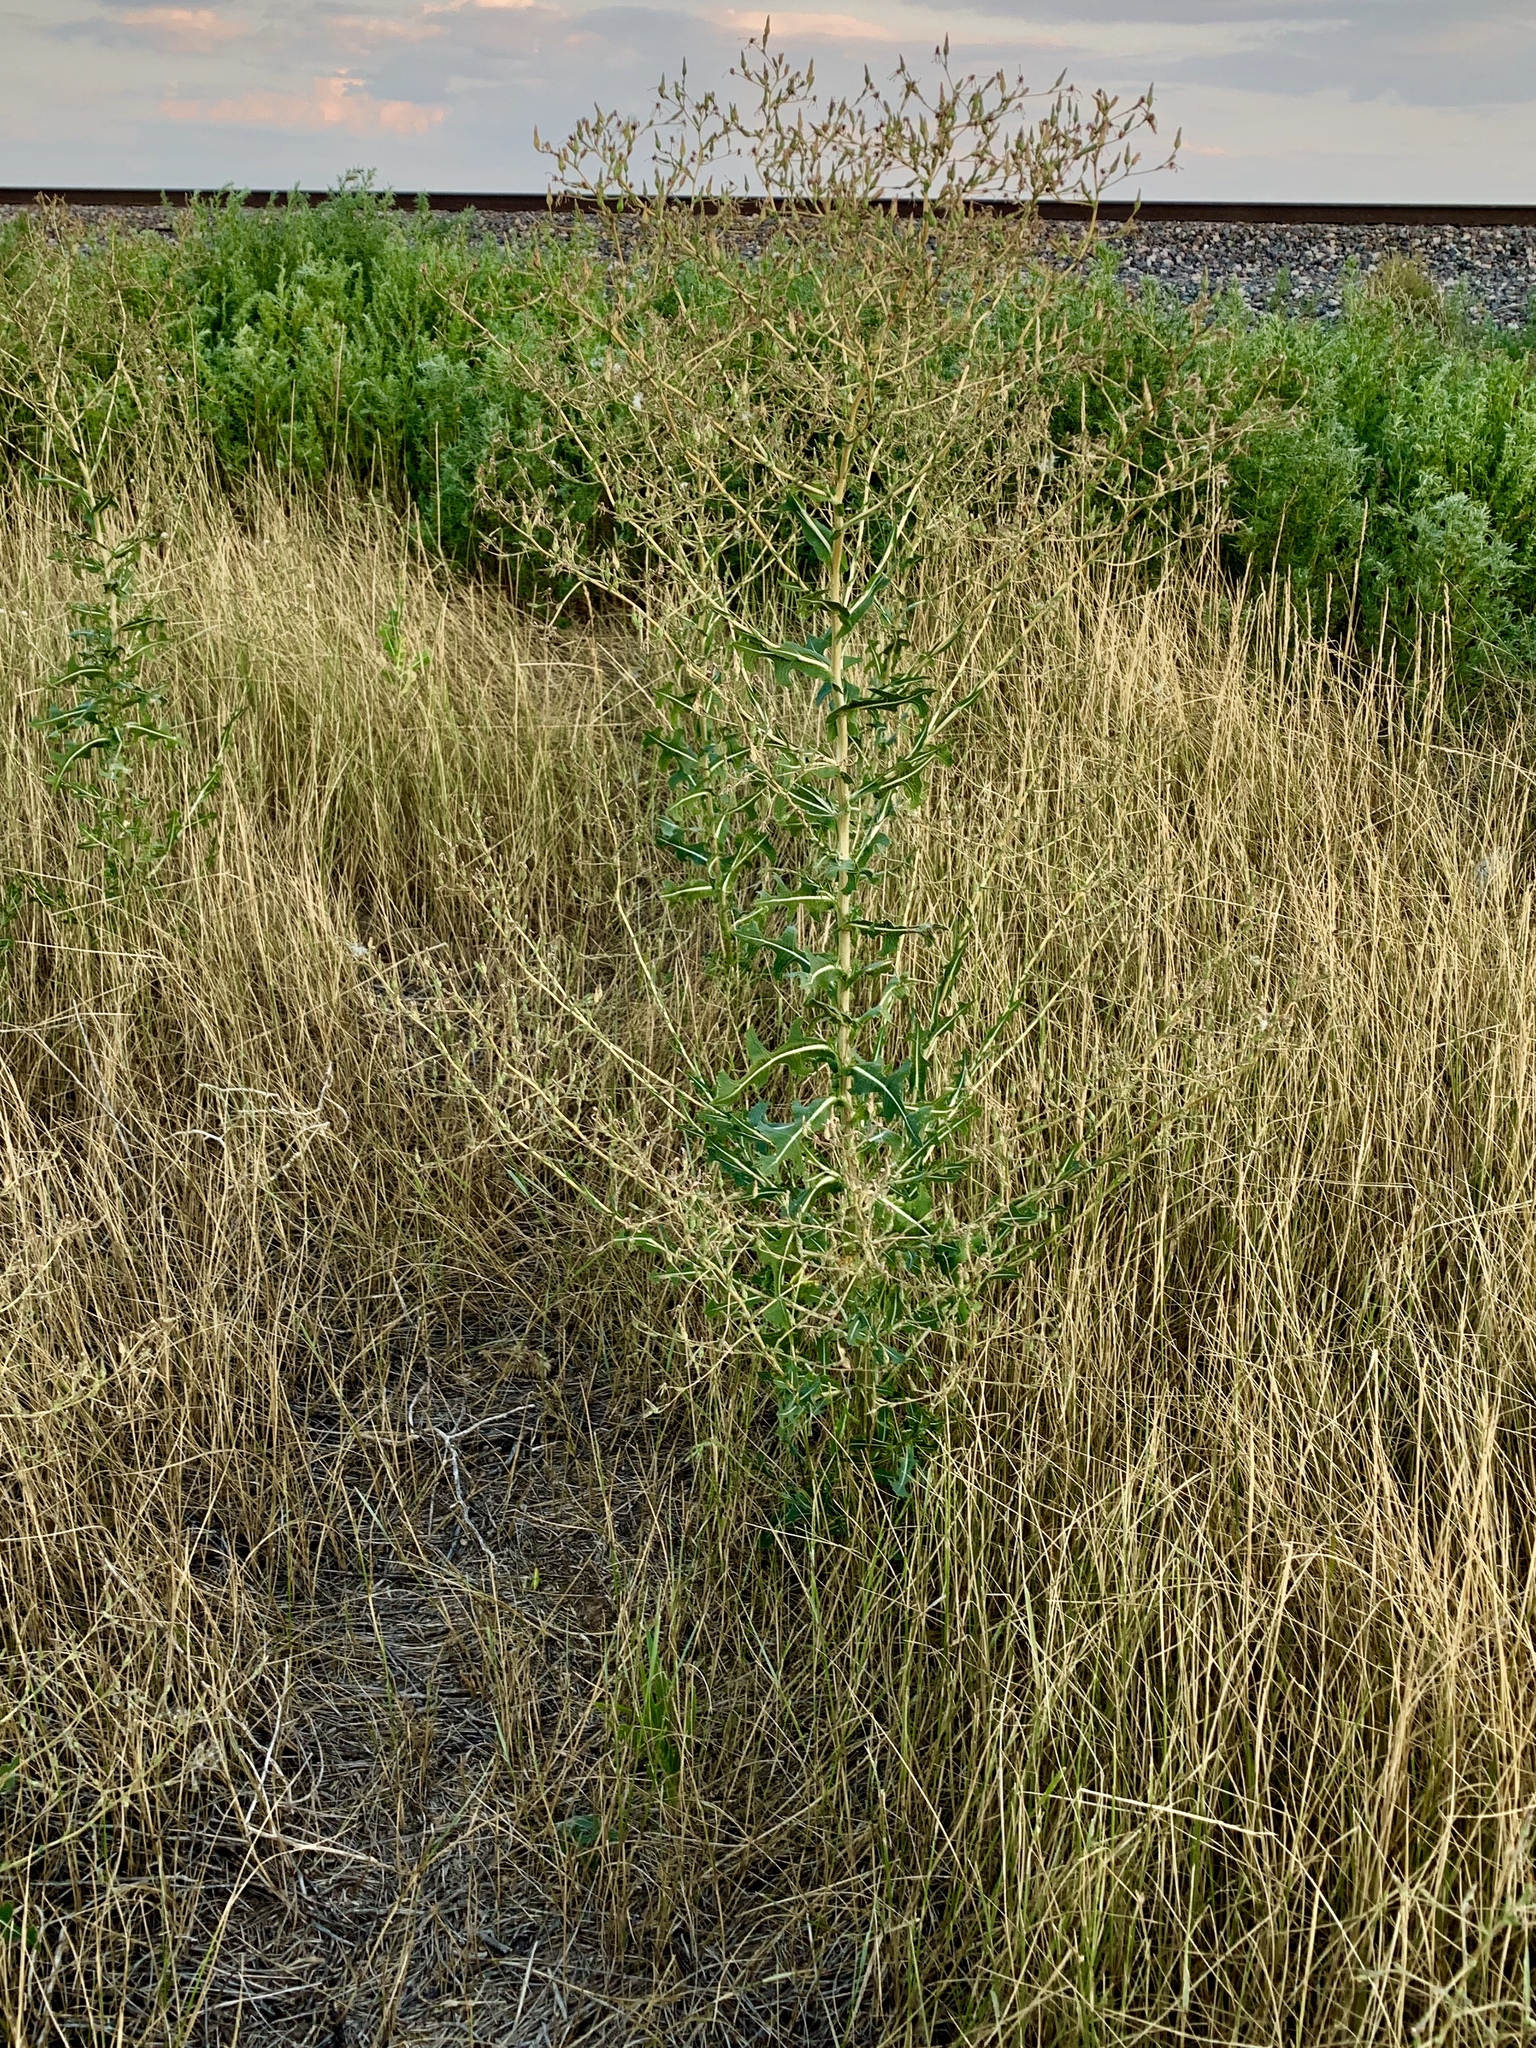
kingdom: Plantae
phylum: Tracheophyta
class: Magnoliopsida
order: Asterales
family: Asteraceae
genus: Lactuca
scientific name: Lactuca serriola
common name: Prickly lettuce
